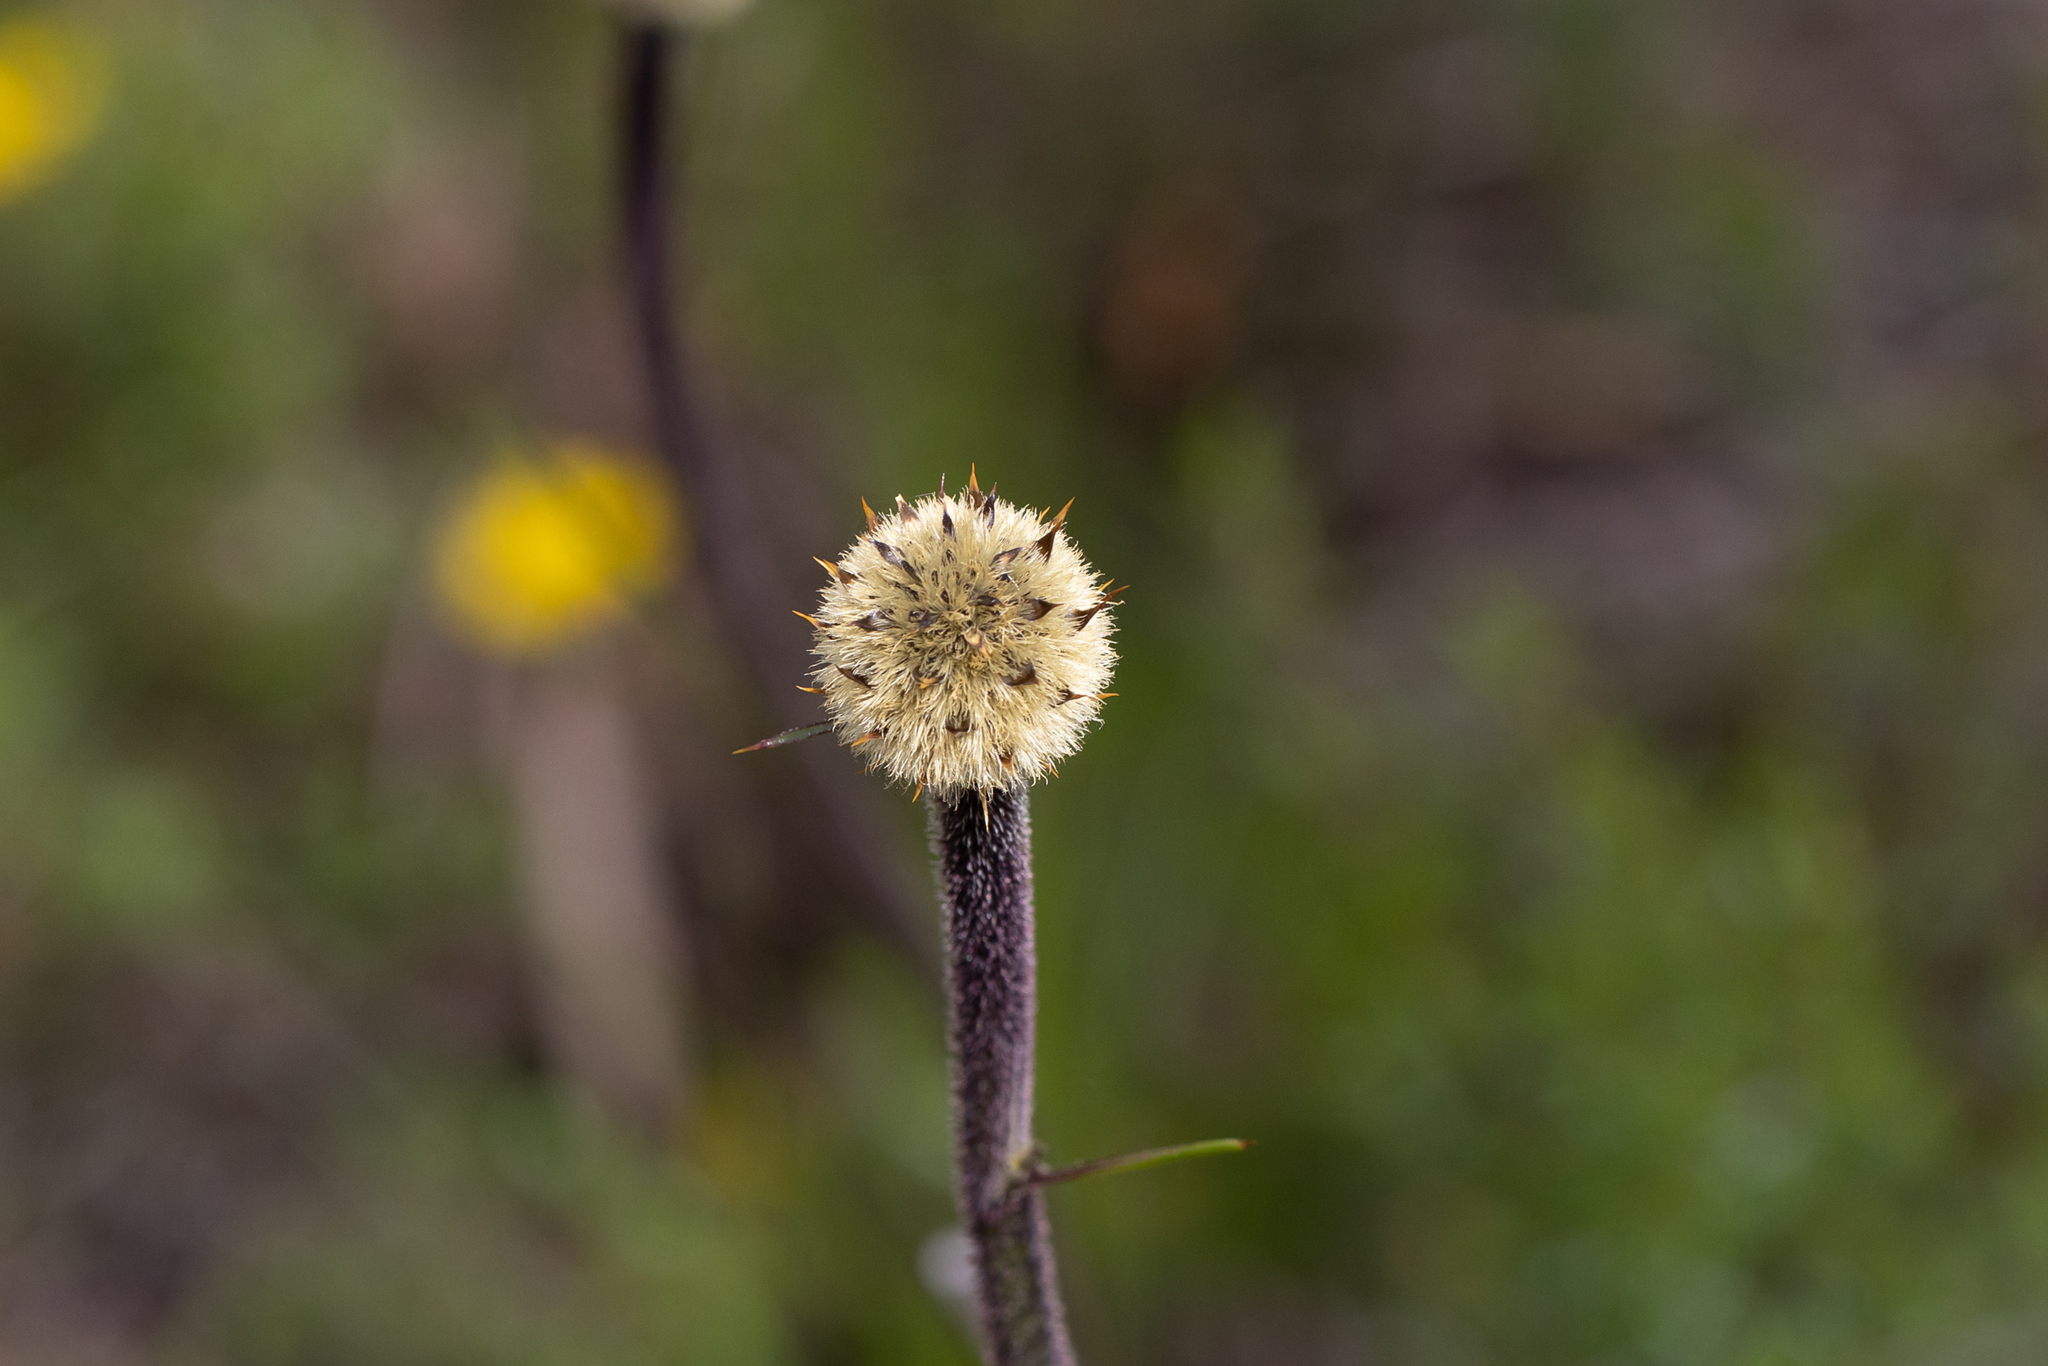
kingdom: Plantae
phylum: Tracheophyta
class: Liliopsida
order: Arecales
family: Dasypogonaceae
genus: Dasypogon
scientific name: Dasypogon bromeliifolius
